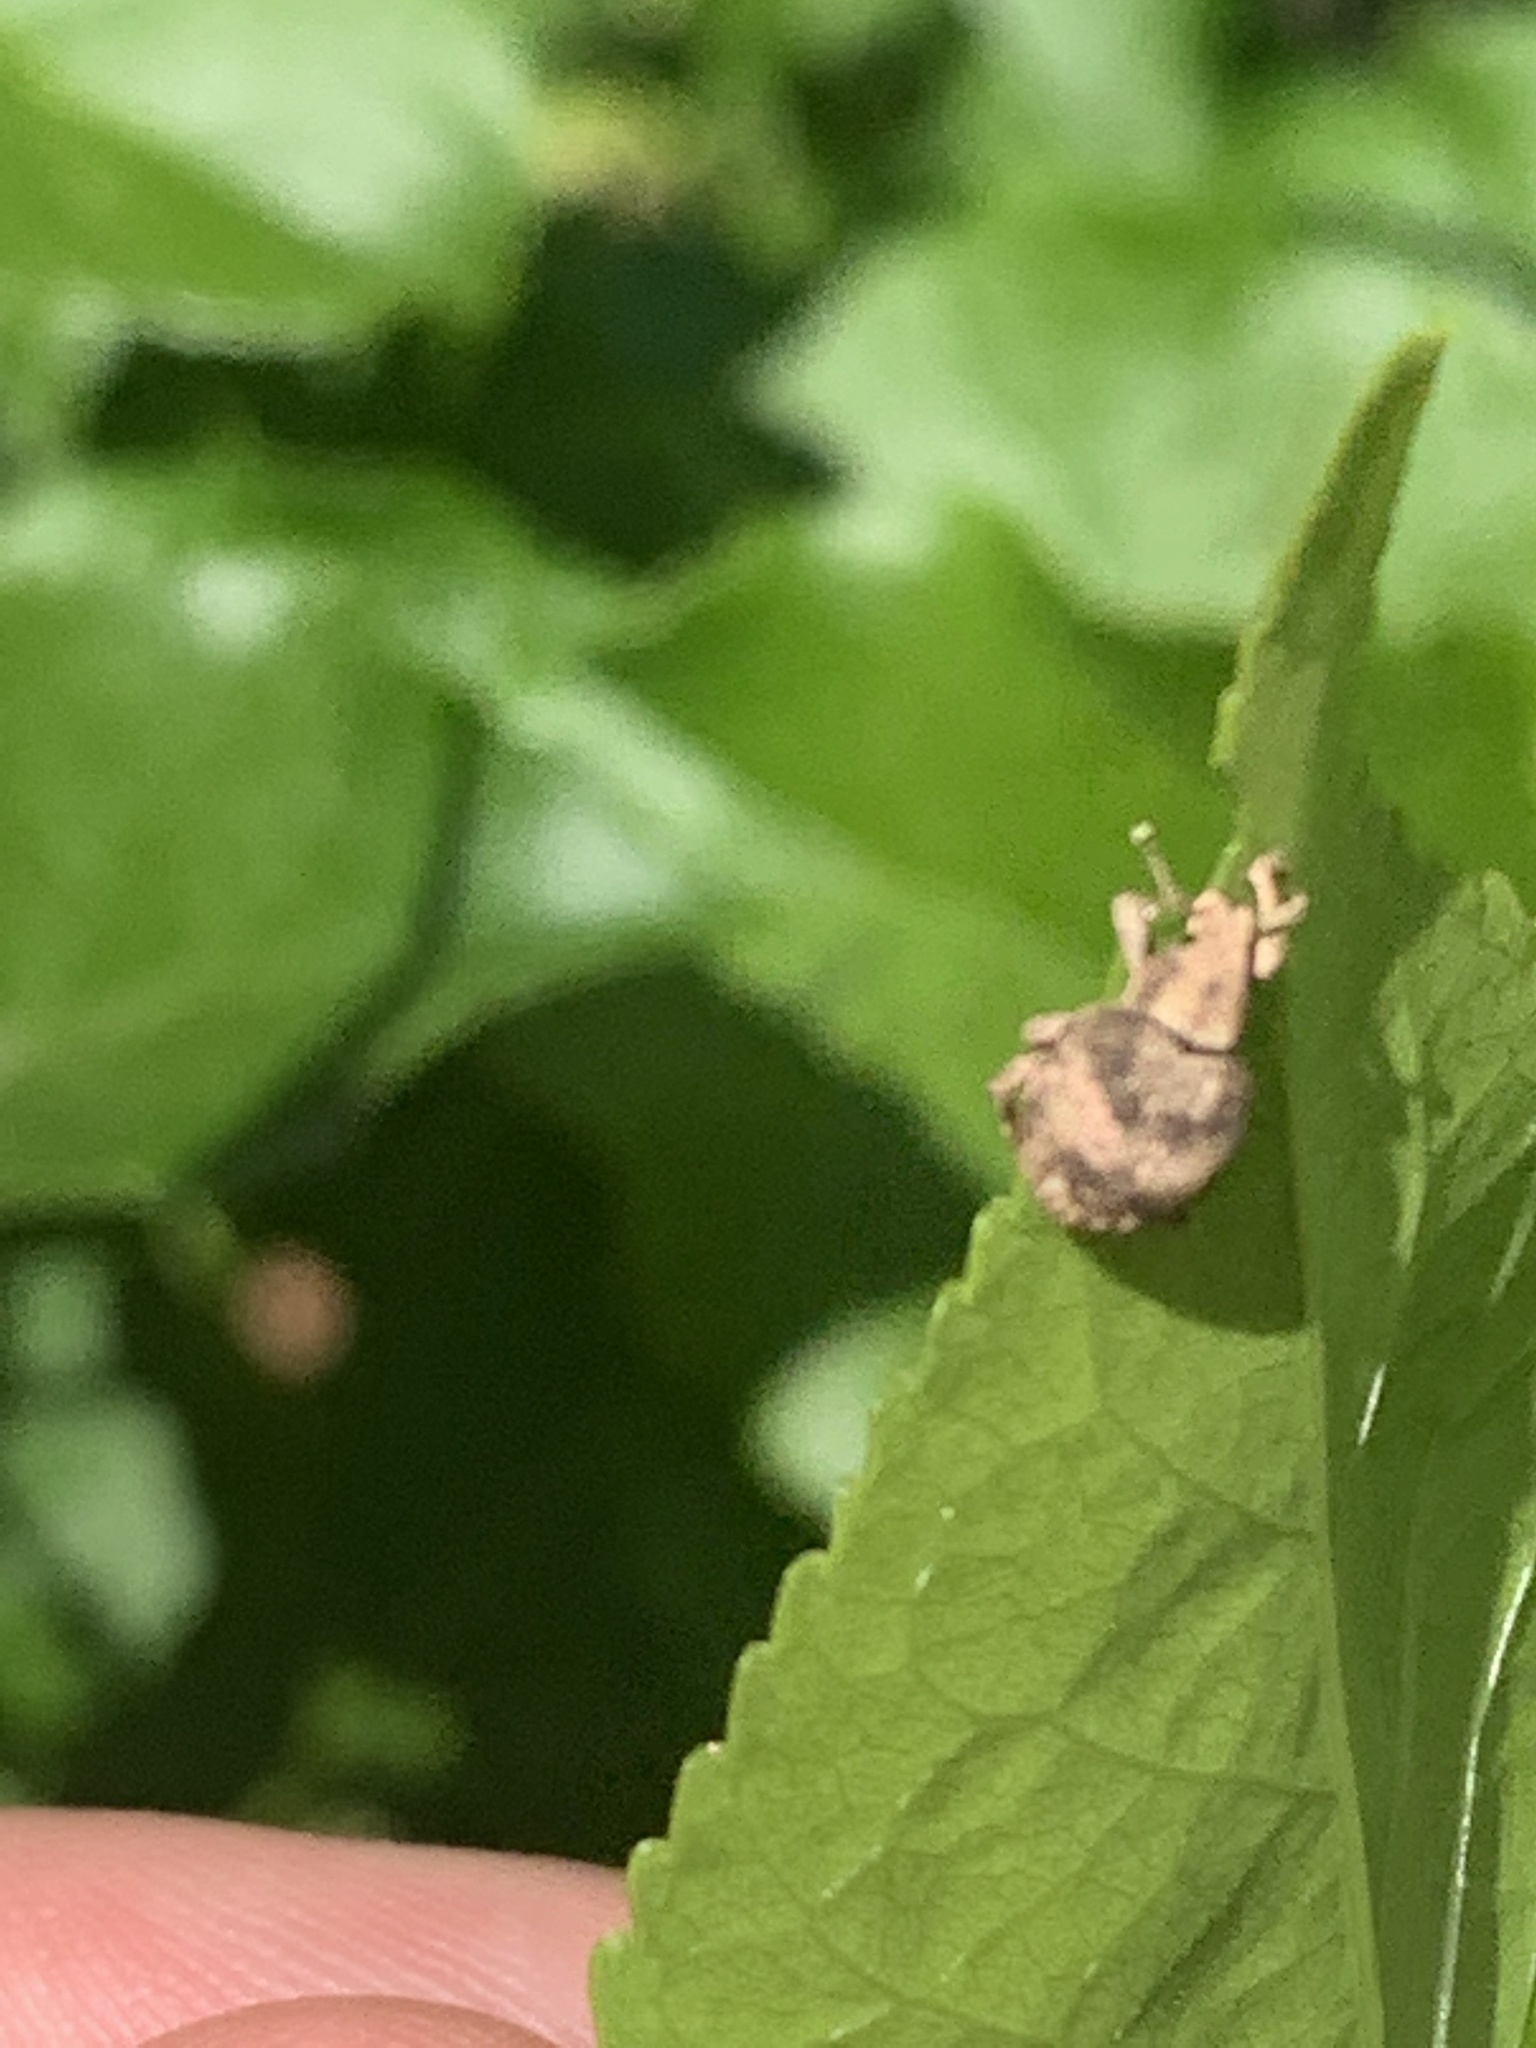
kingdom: Animalia
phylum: Arthropoda
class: Insecta
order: Coleoptera
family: Curculionidae
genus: Pseudocneorhinus
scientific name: Pseudocneorhinus bifasciatus
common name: Two-banded japanese weevil
